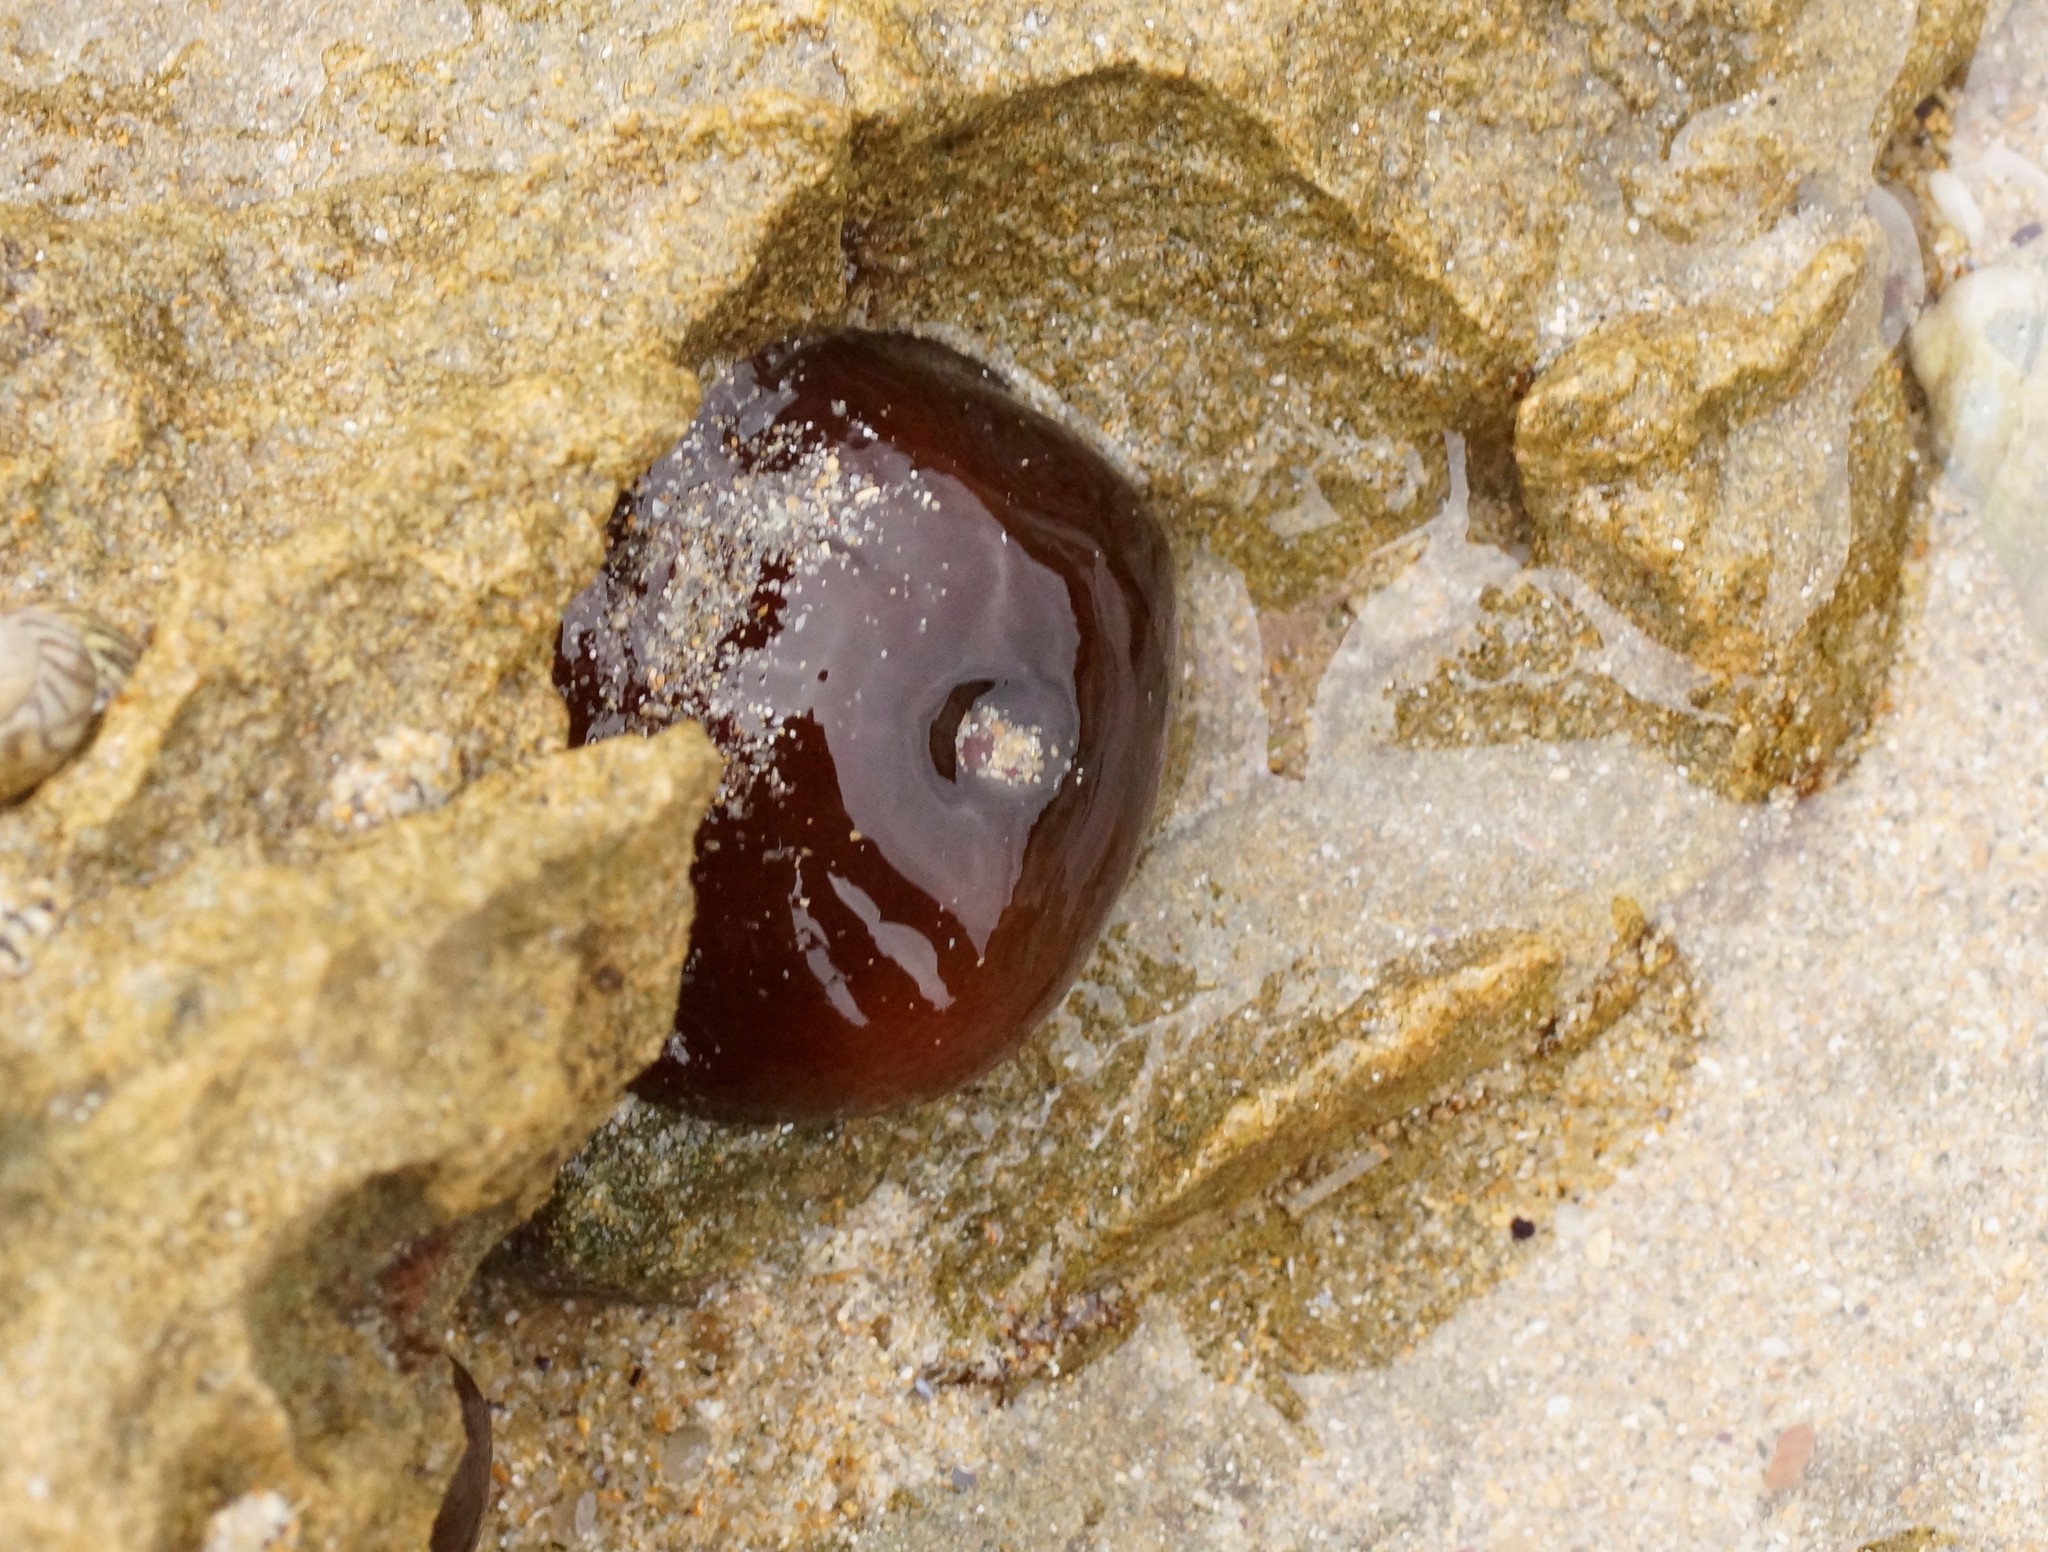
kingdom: Animalia
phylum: Cnidaria
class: Anthozoa
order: Actiniaria
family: Actiniidae
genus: Actinia
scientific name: Actinia tenebrosa
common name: Waratah anemone
